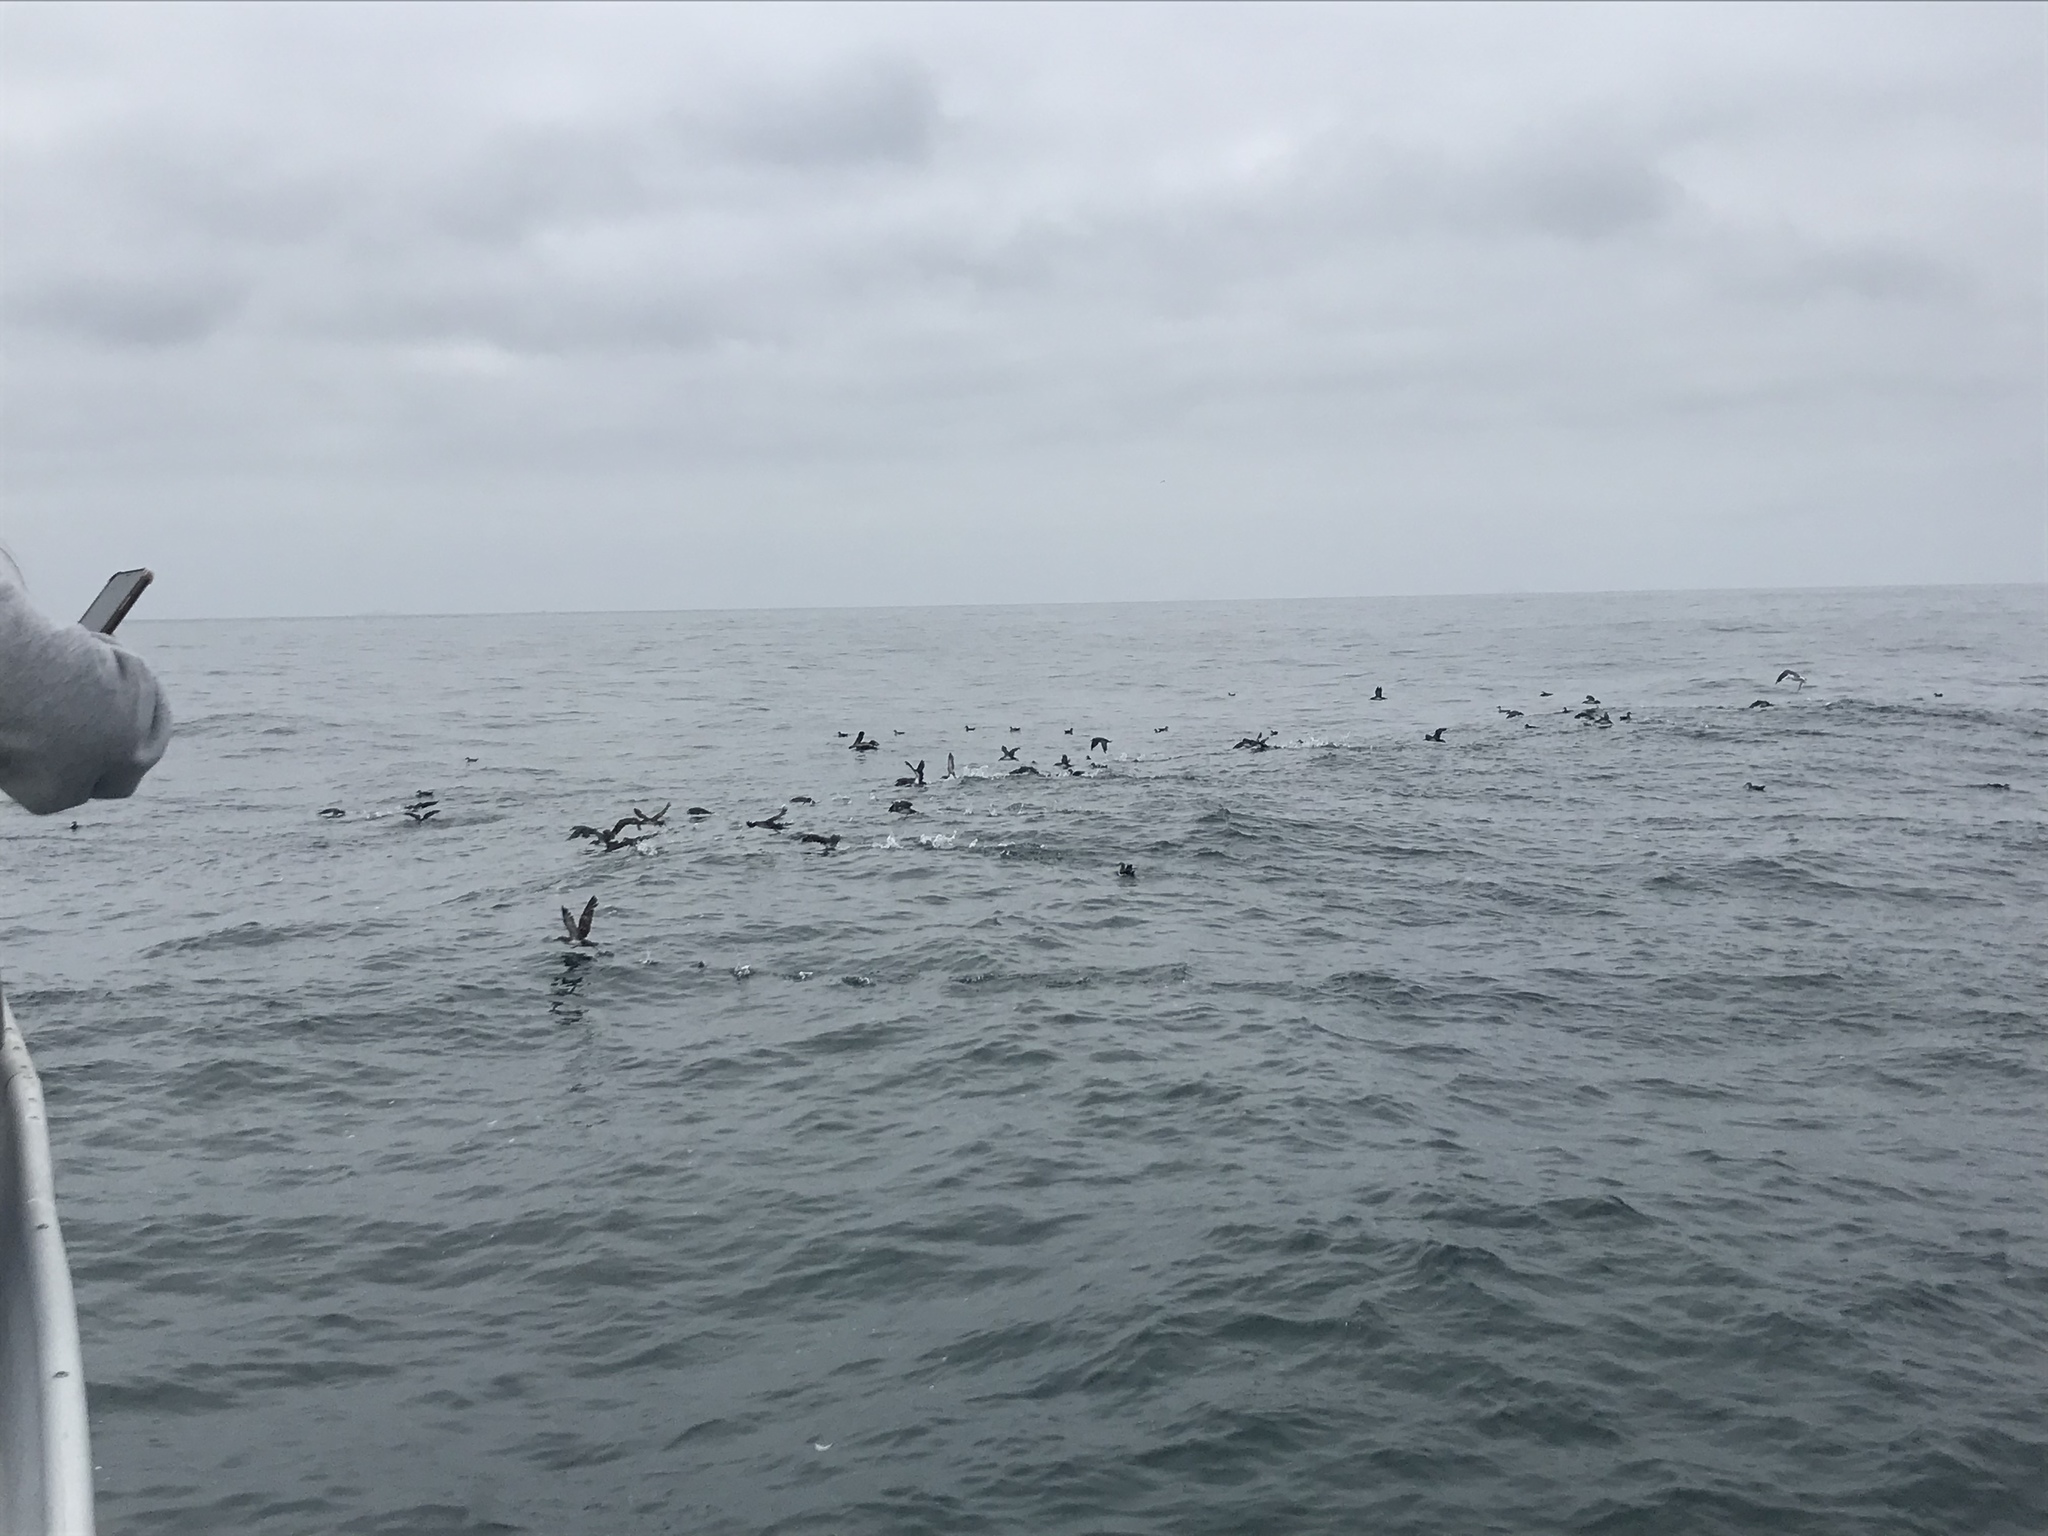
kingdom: Animalia
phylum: Chordata
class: Aves
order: Procellariiformes
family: Procellariidae
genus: Puffinus
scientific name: Puffinus opisthomelas
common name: Black-vented shearwater
